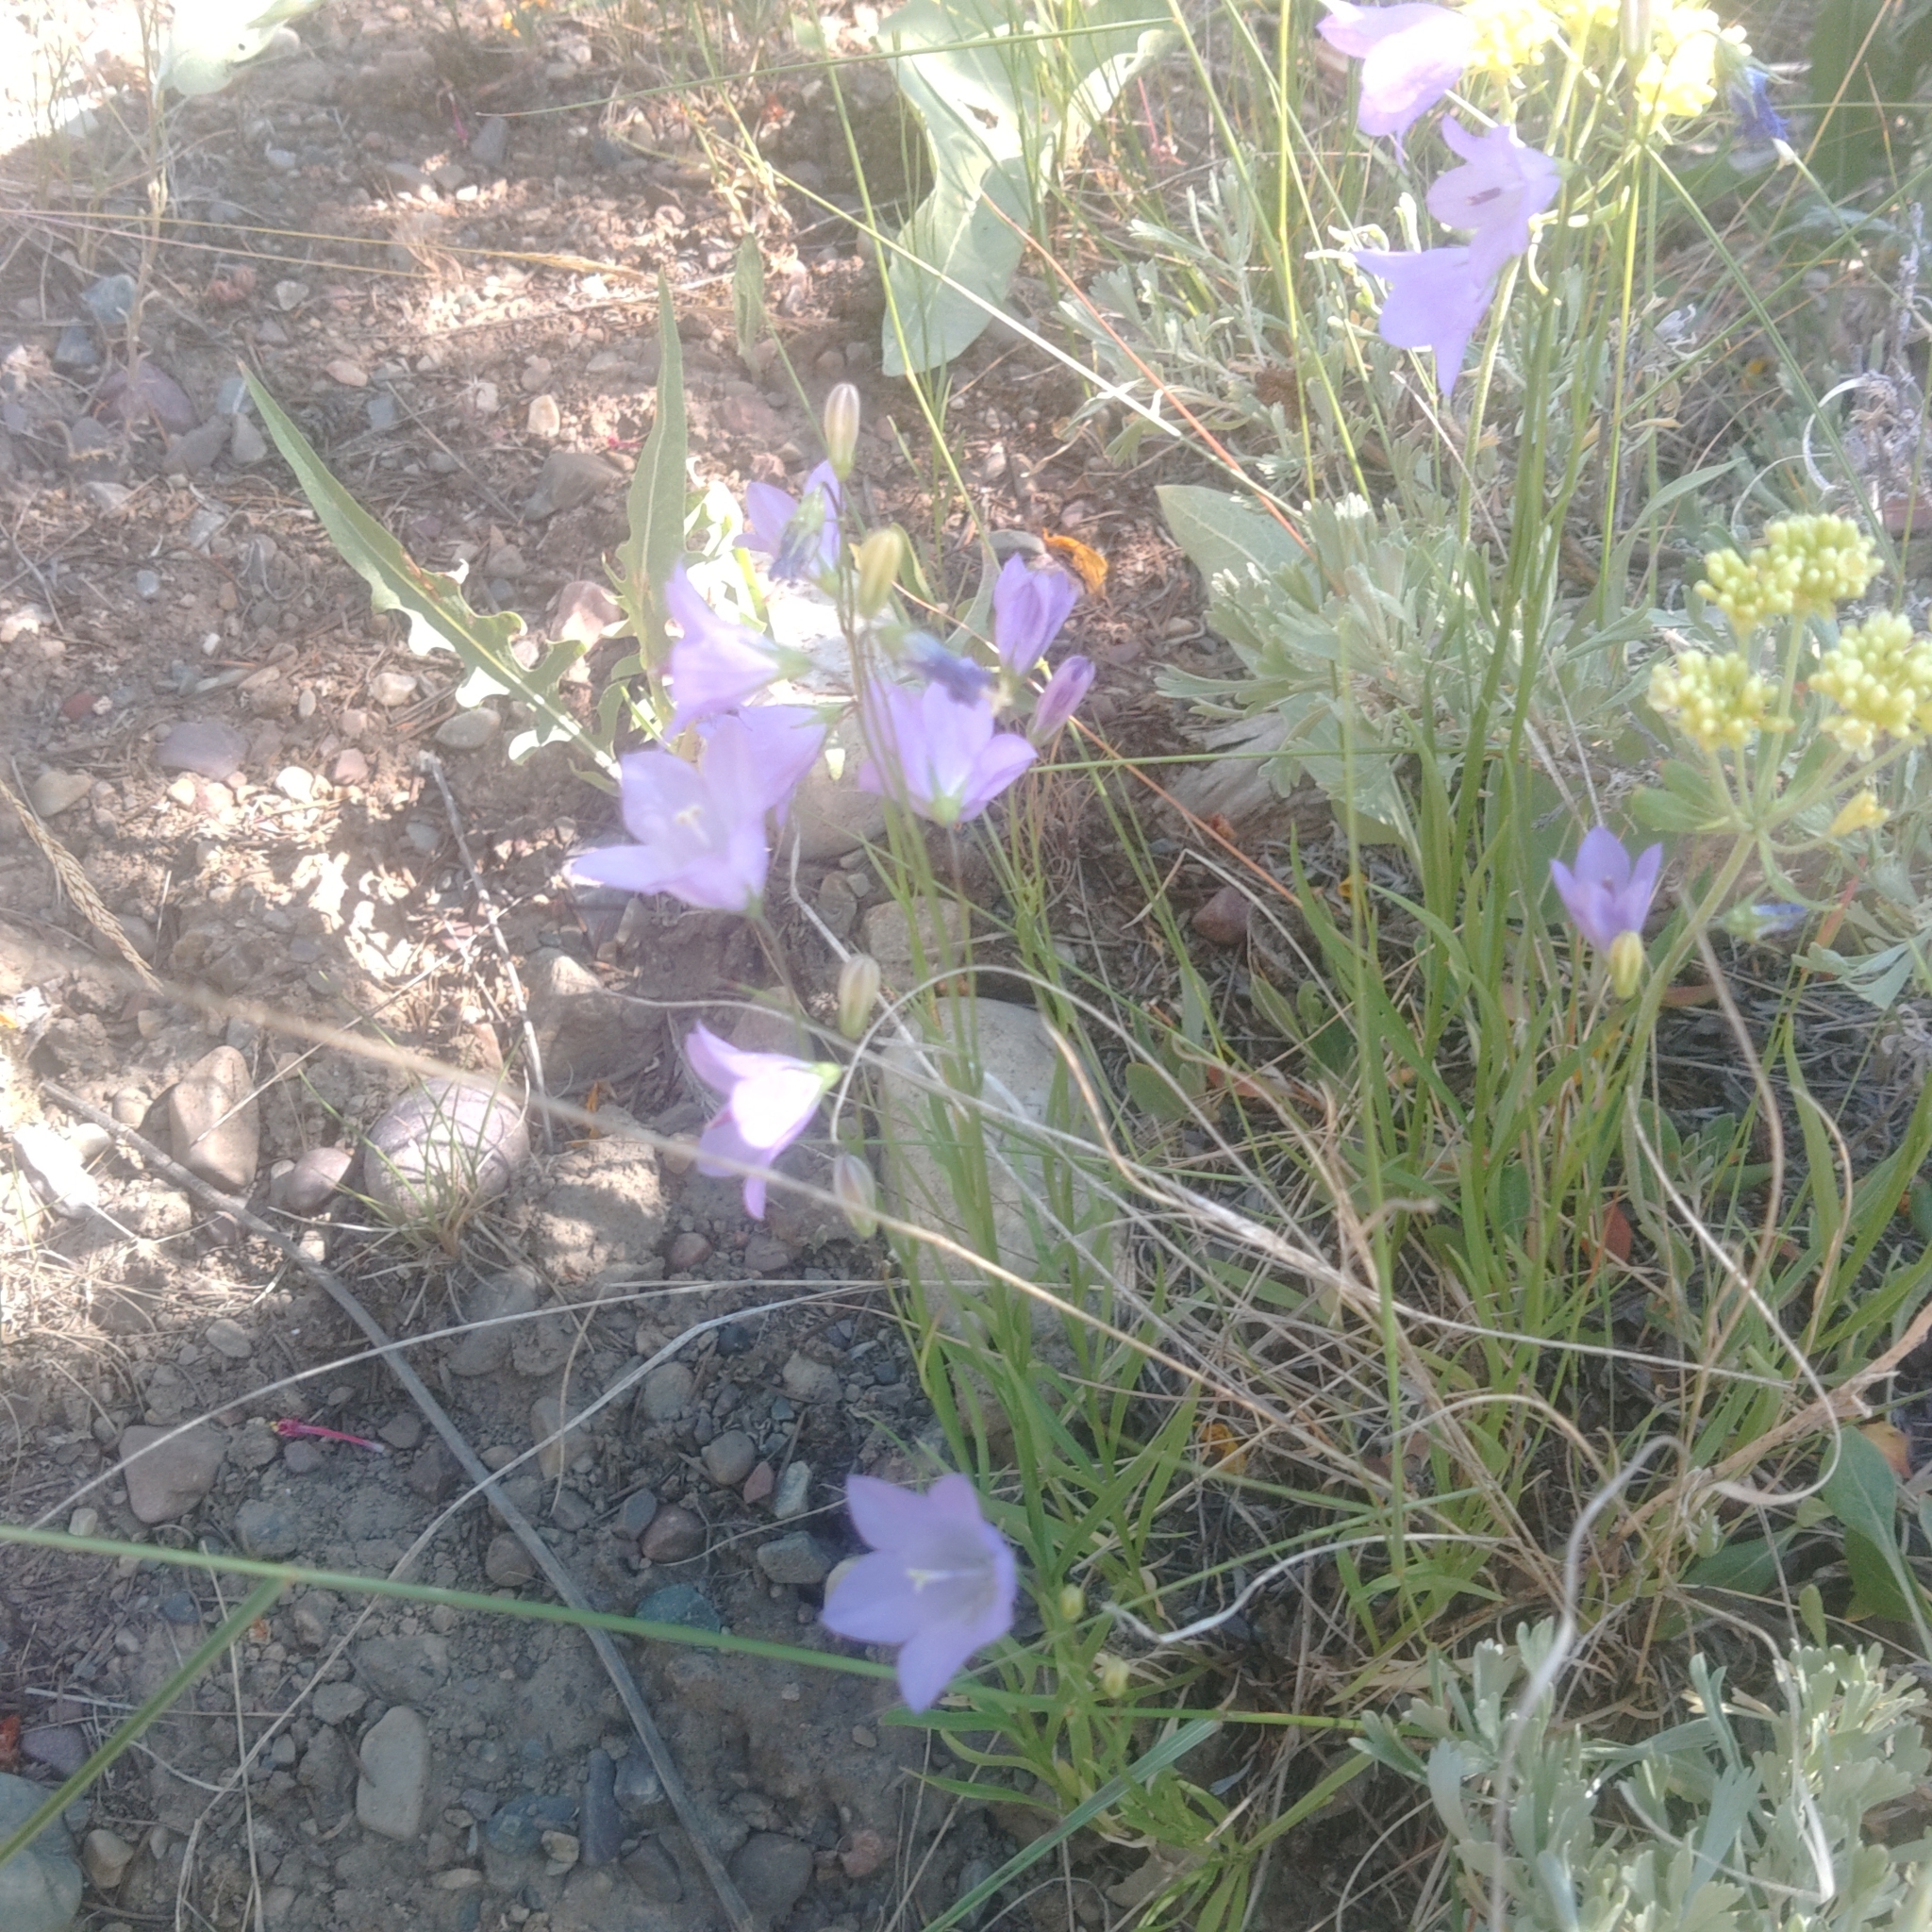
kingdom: Plantae
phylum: Tracheophyta
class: Magnoliopsida
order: Asterales
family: Campanulaceae
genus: Campanula
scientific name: Campanula petiolata
